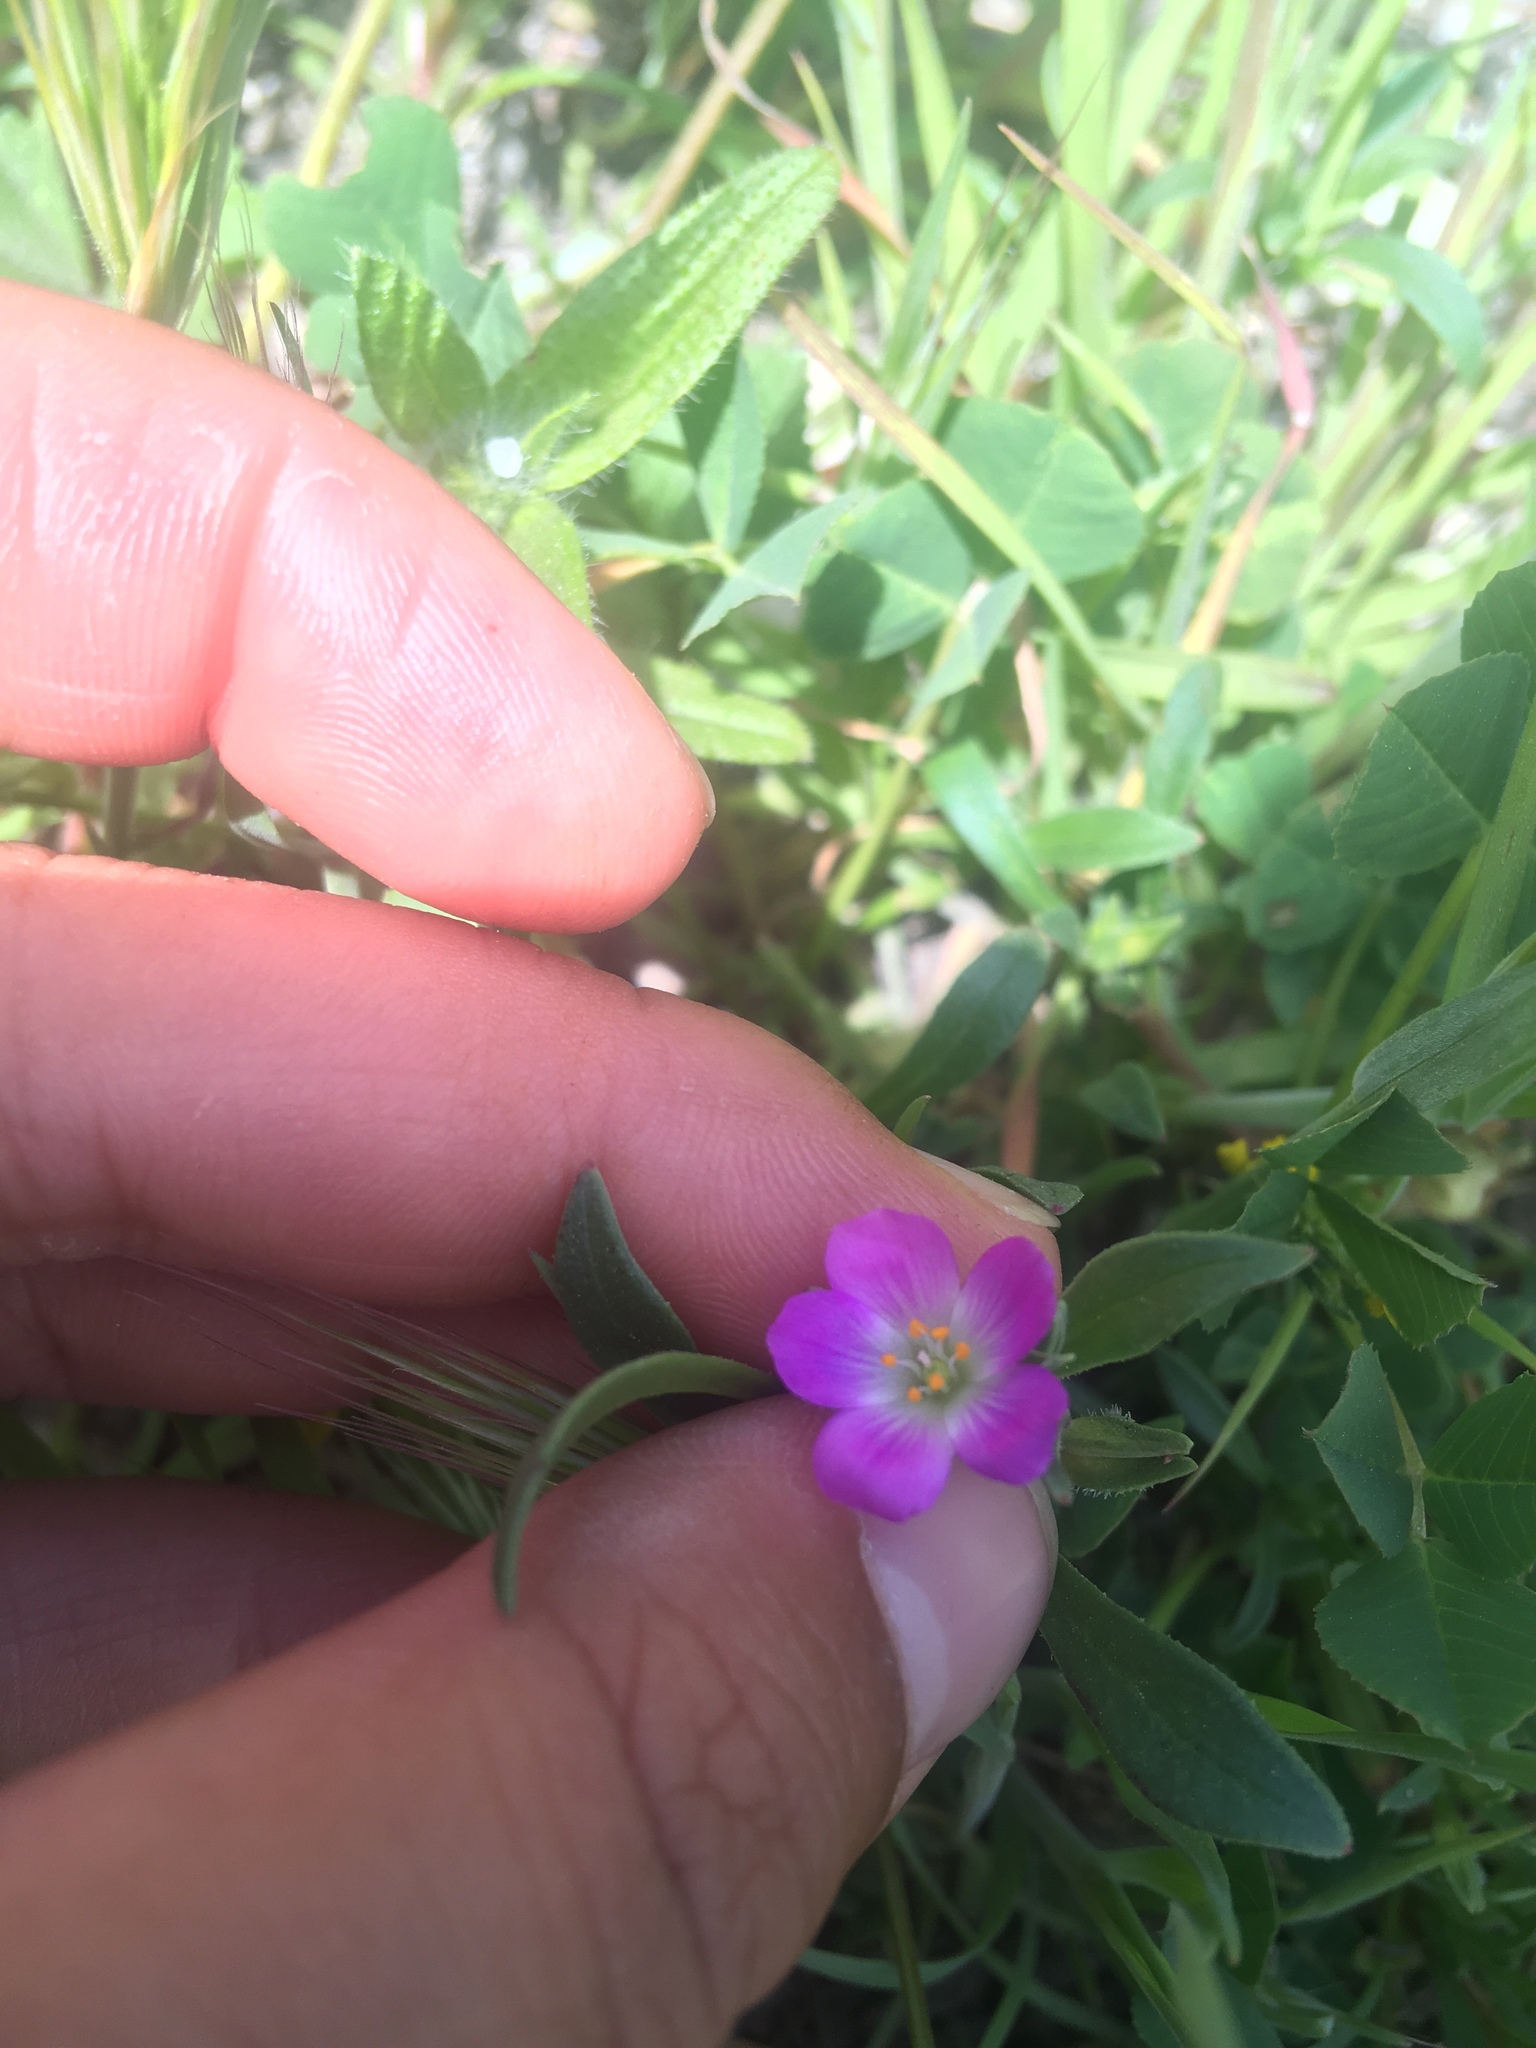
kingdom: Plantae
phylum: Tracheophyta
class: Magnoliopsida
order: Caryophyllales
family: Montiaceae
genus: Calandrinia
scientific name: Calandrinia menziesii
